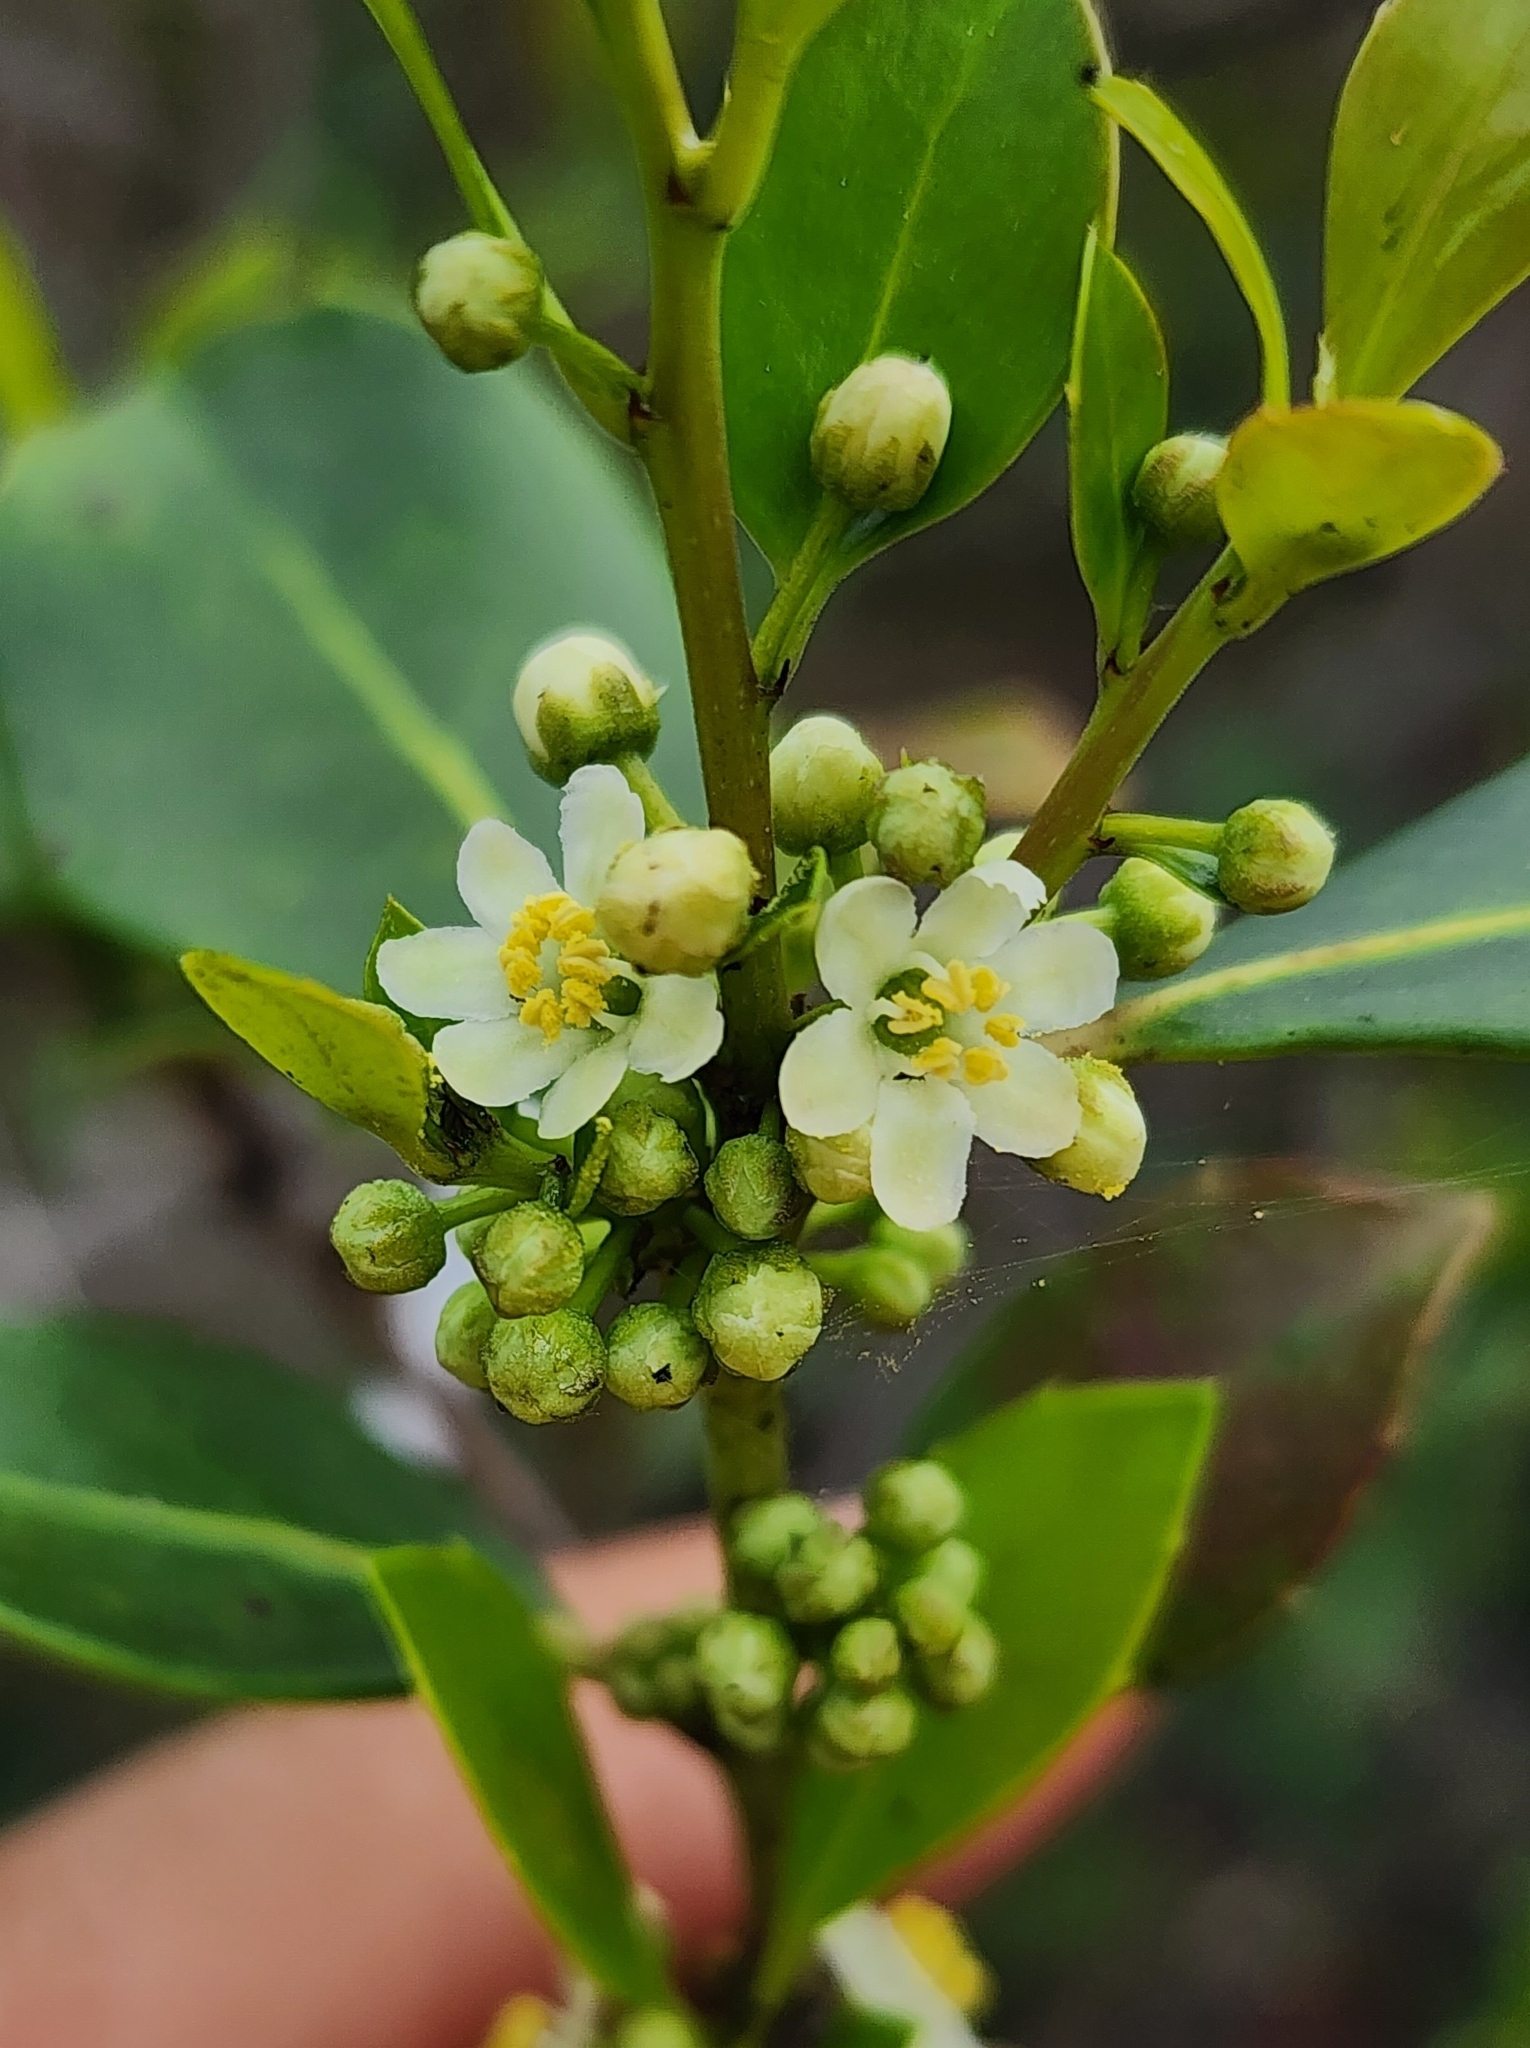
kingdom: Plantae
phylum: Tracheophyta
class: Magnoliopsida
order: Aquifoliales
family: Aquifoliaceae
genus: Ilex
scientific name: Ilex coriacea
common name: Sweet gallberry
